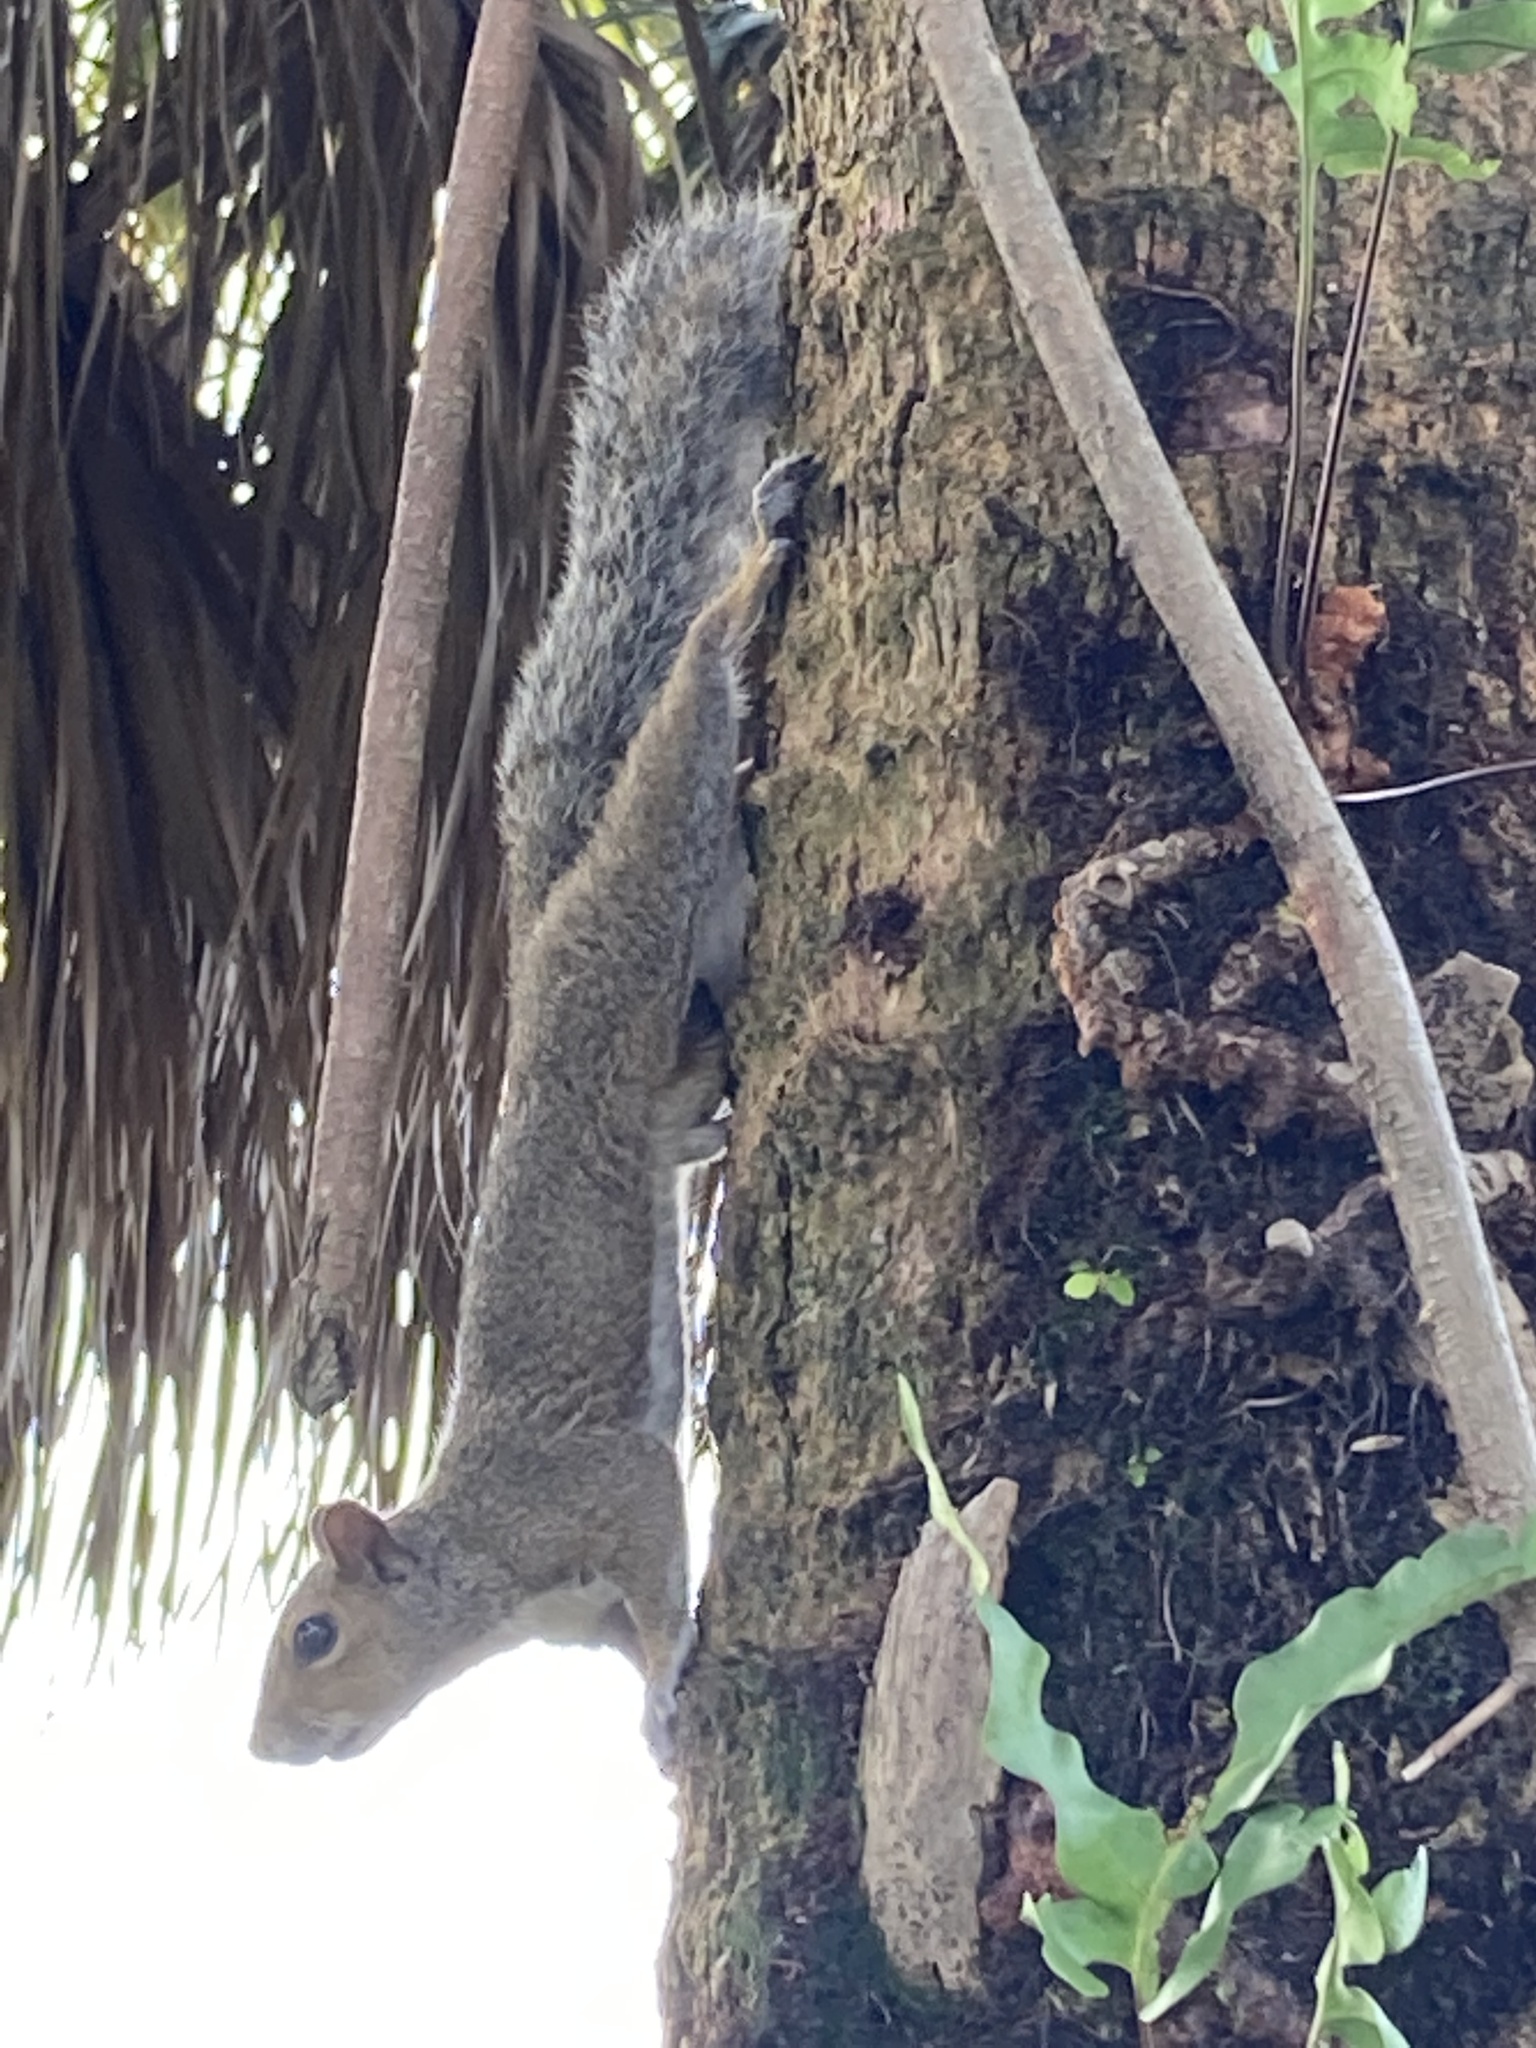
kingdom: Animalia
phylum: Chordata
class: Mammalia
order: Rodentia
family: Sciuridae
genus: Sciurus
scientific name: Sciurus carolinensis
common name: Eastern gray squirrel
